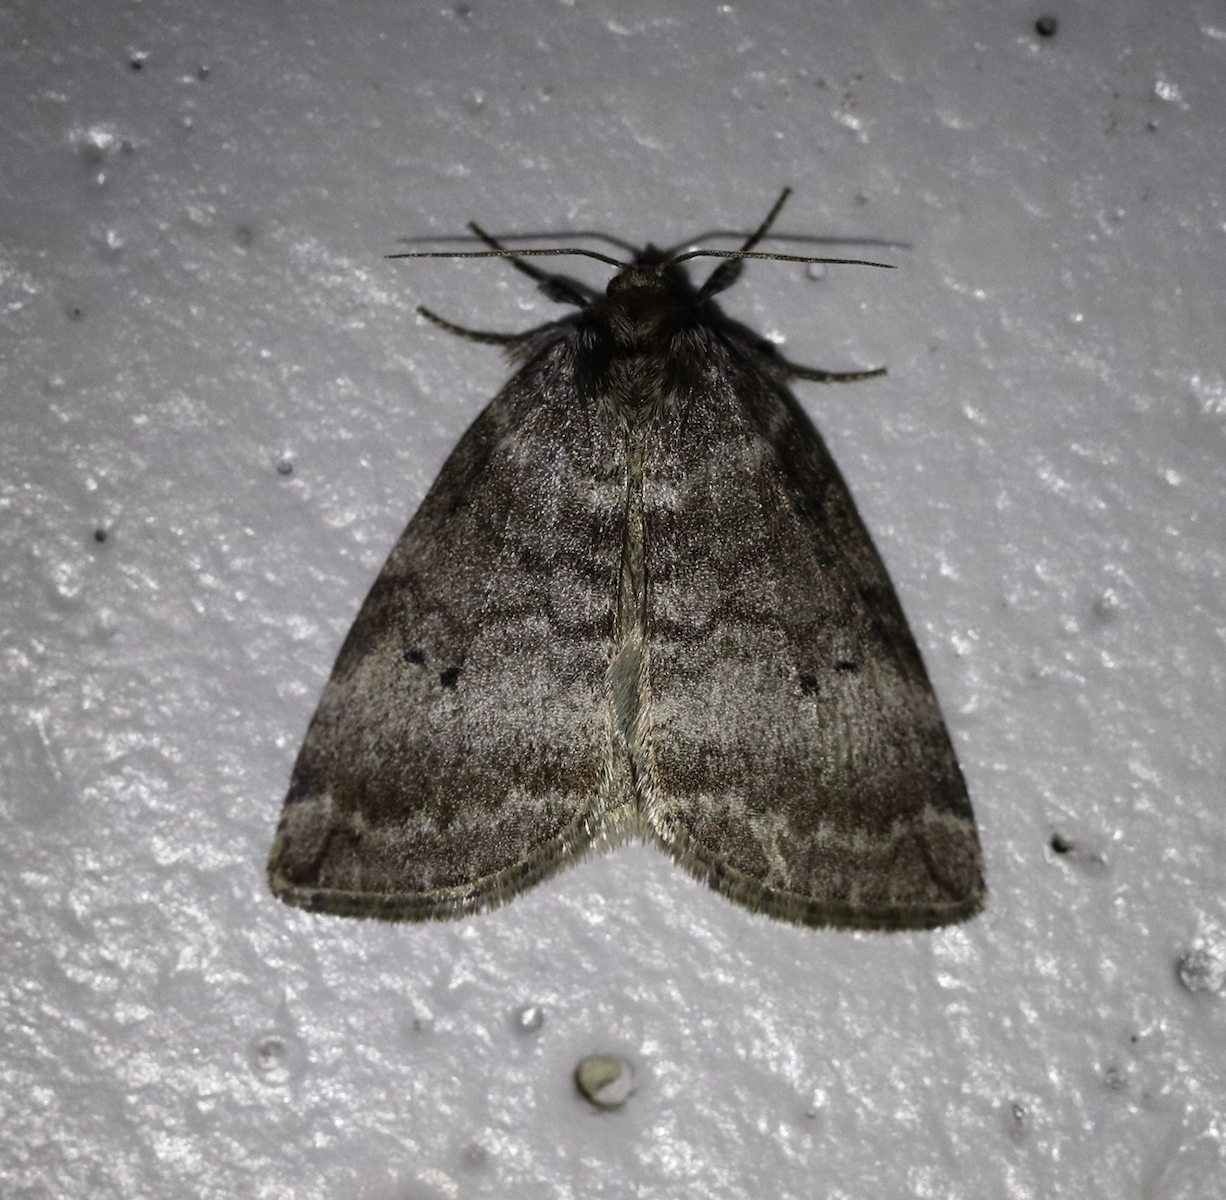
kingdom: Animalia
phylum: Arthropoda
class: Insecta
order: Lepidoptera
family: Drepanidae
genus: Ochropacha
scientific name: Ochropacha duplaris
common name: Common lutestring
